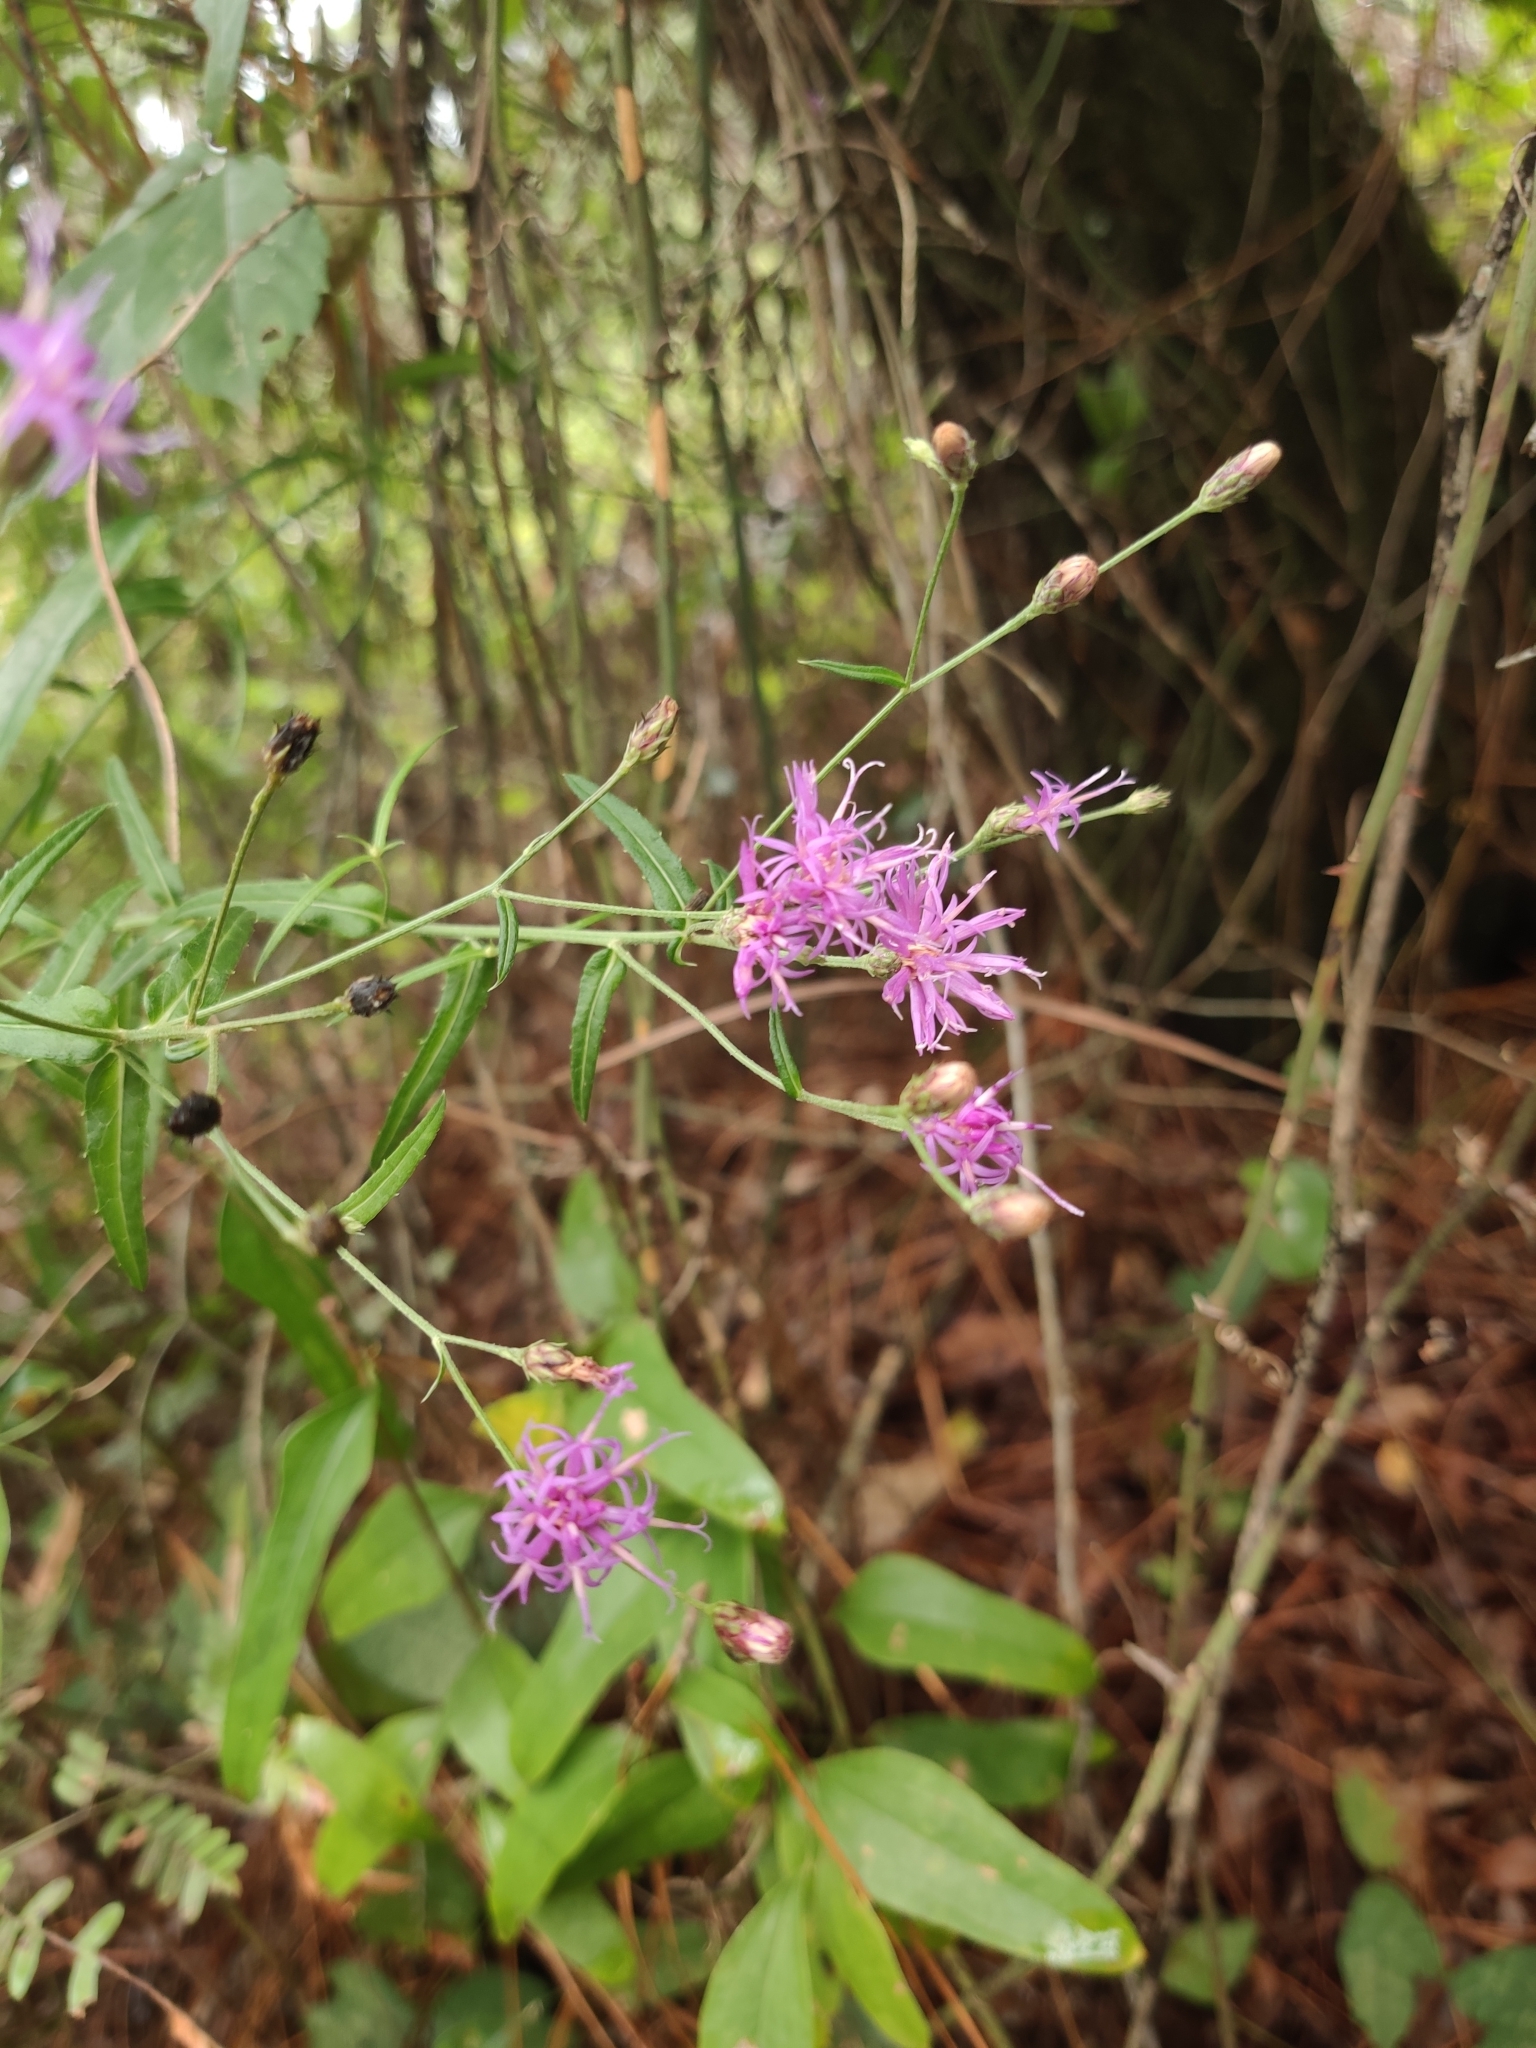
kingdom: Plantae
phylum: Tracheophyta
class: Magnoliopsida
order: Asterales
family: Asteraceae
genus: Vernonia
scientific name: Vernonia angustifolia
